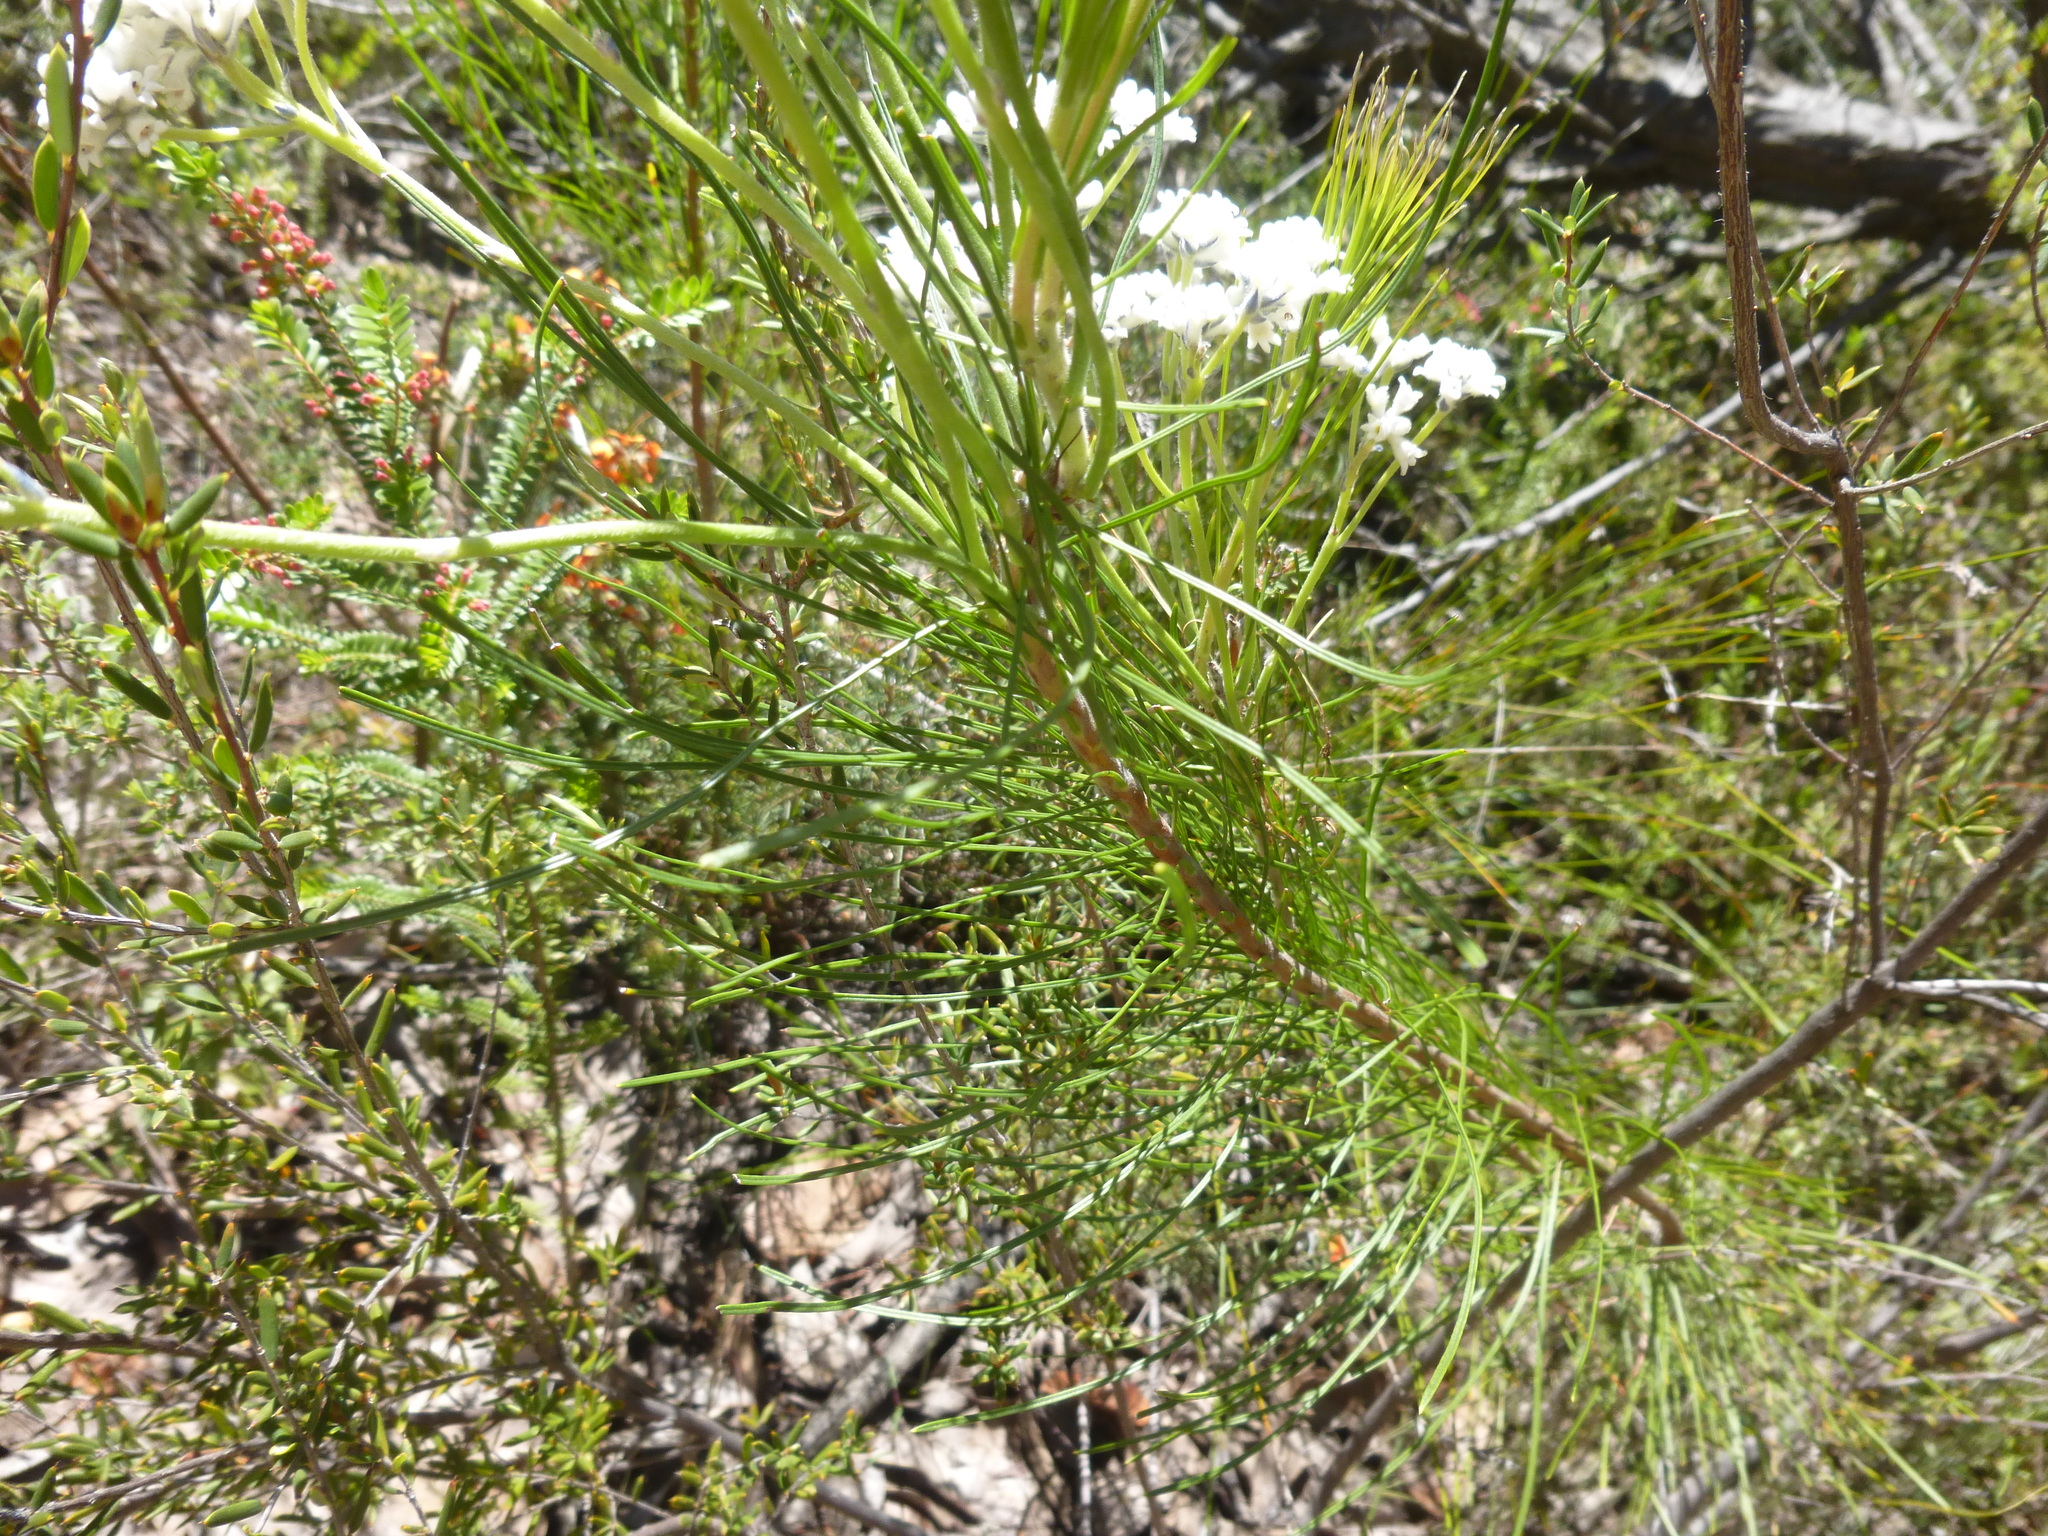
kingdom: Plantae
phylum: Tracheophyta
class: Magnoliopsida
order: Proteales
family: Proteaceae
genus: Conospermum
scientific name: Conospermum mitchellii
